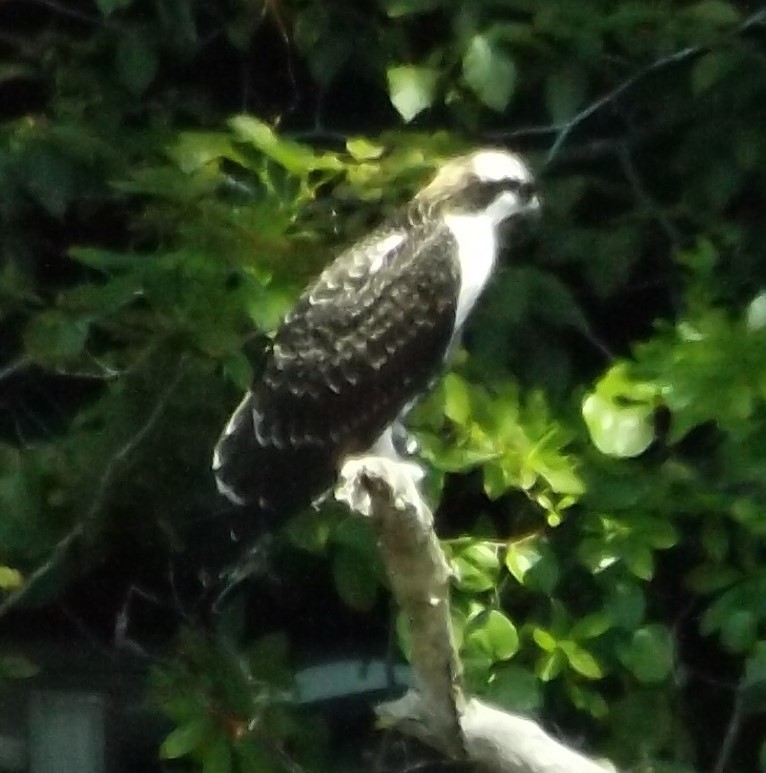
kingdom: Animalia
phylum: Chordata
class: Aves
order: Accipitriformes
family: Pandionidae
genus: Pandion
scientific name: Pandion haliaetus
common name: Osprey
